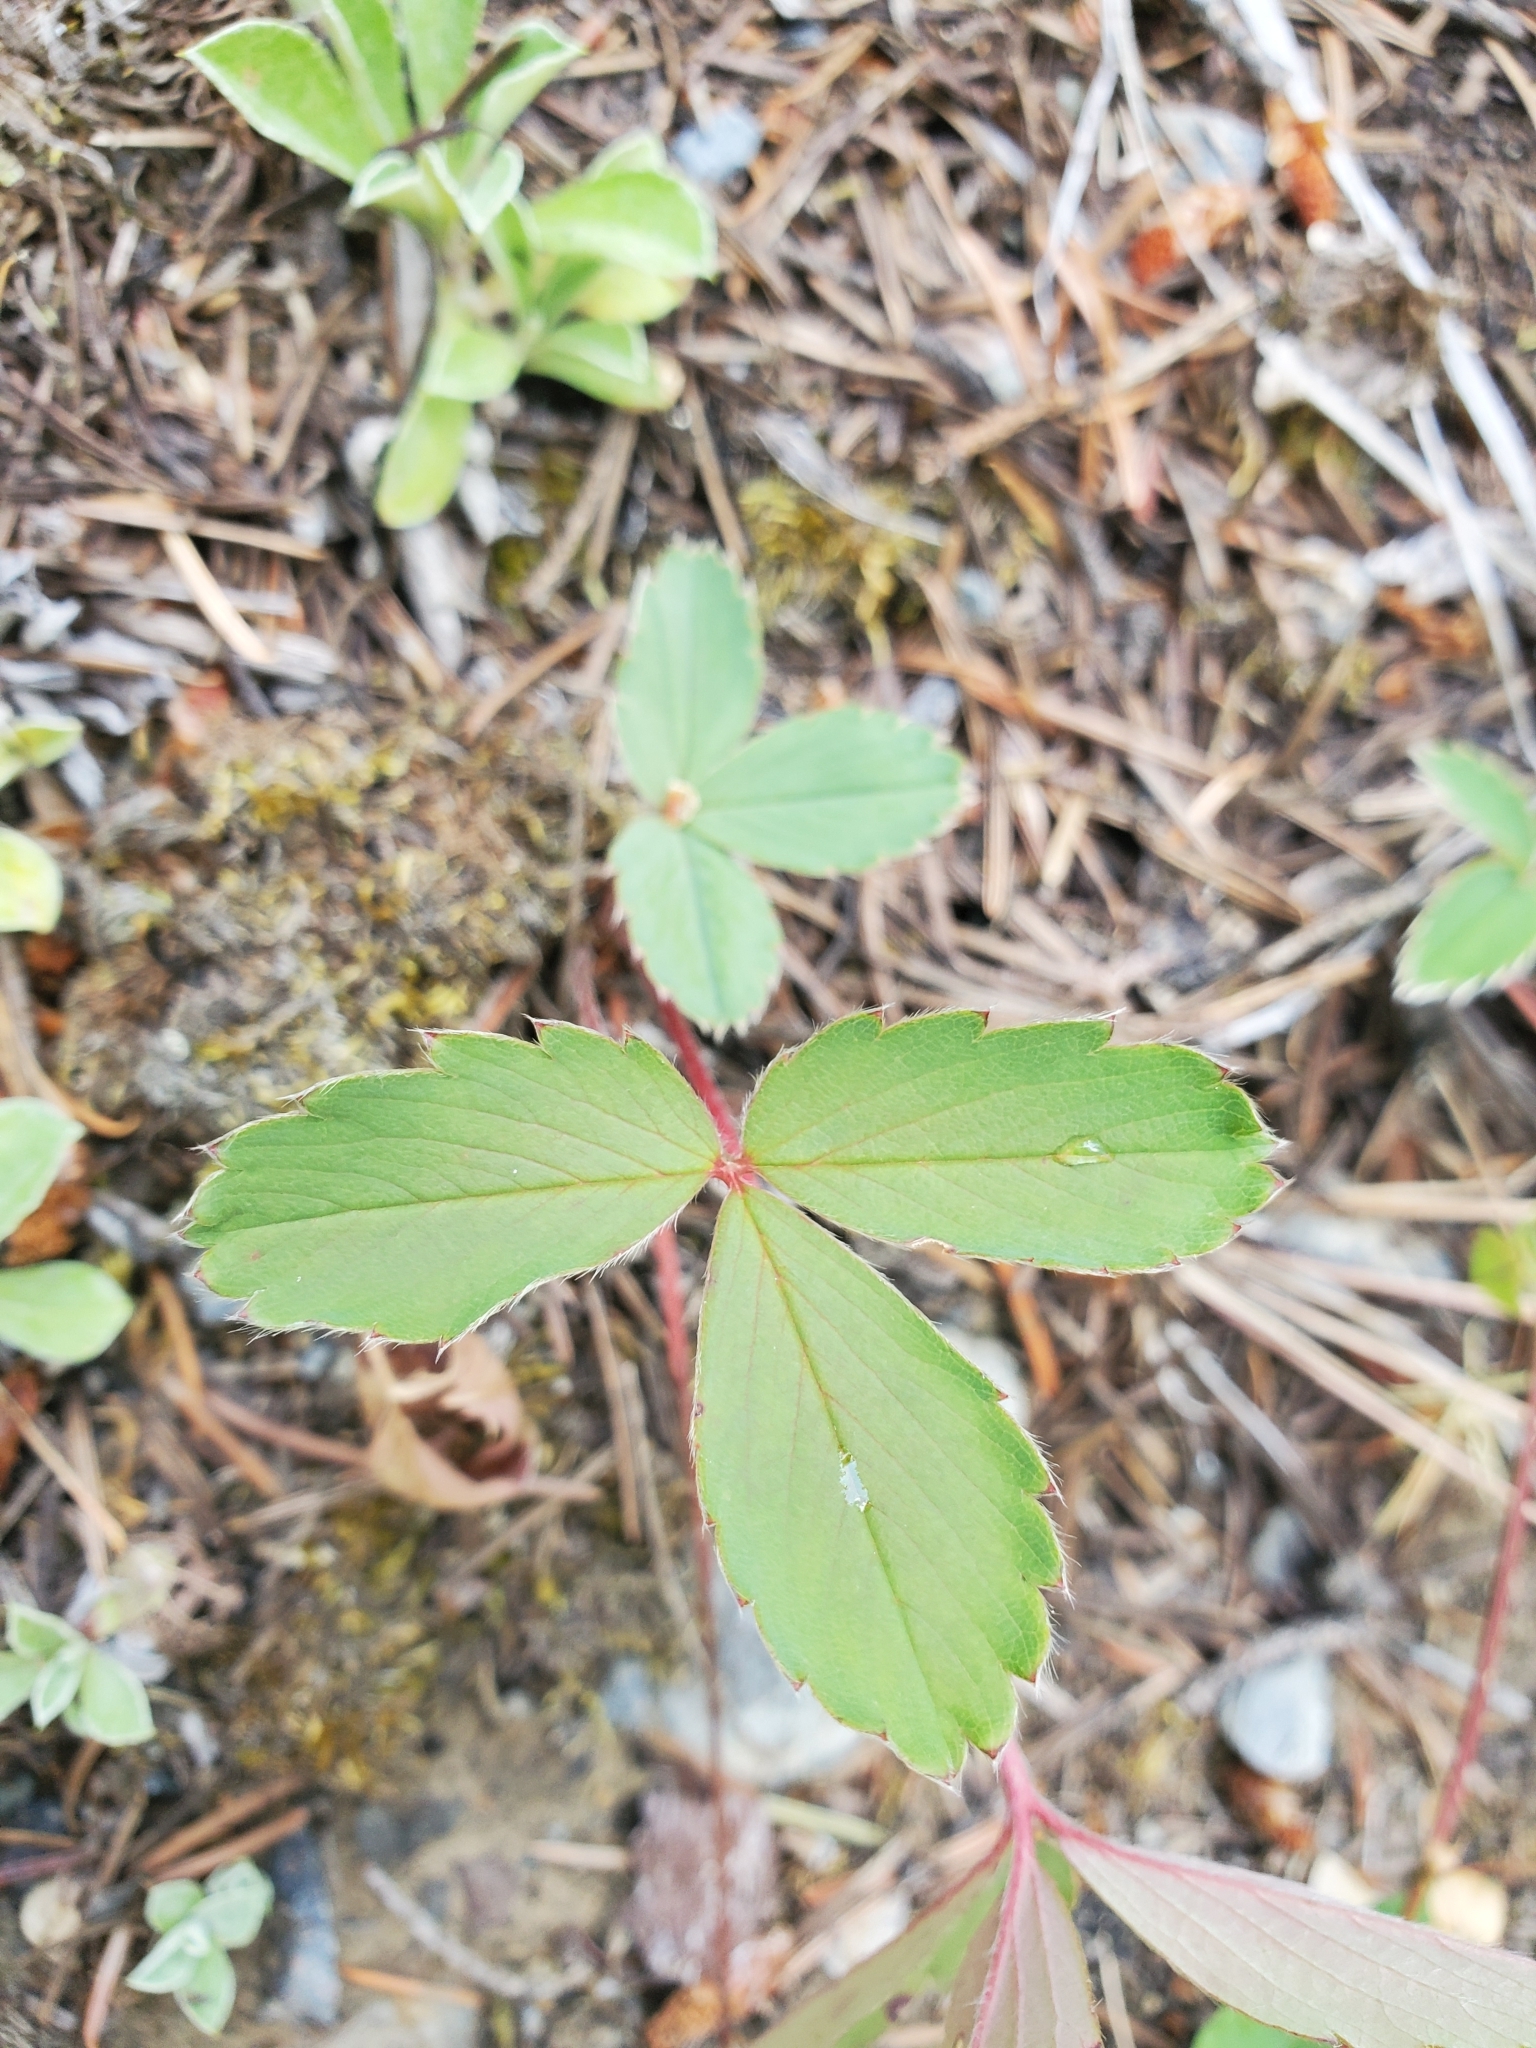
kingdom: Plantae
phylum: Tracheophyta
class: Magnoliopsida
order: Rosales
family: Rosaceae
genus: Fragaria
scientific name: Fragaria virginiana
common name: Thickleaved wild strawberry
